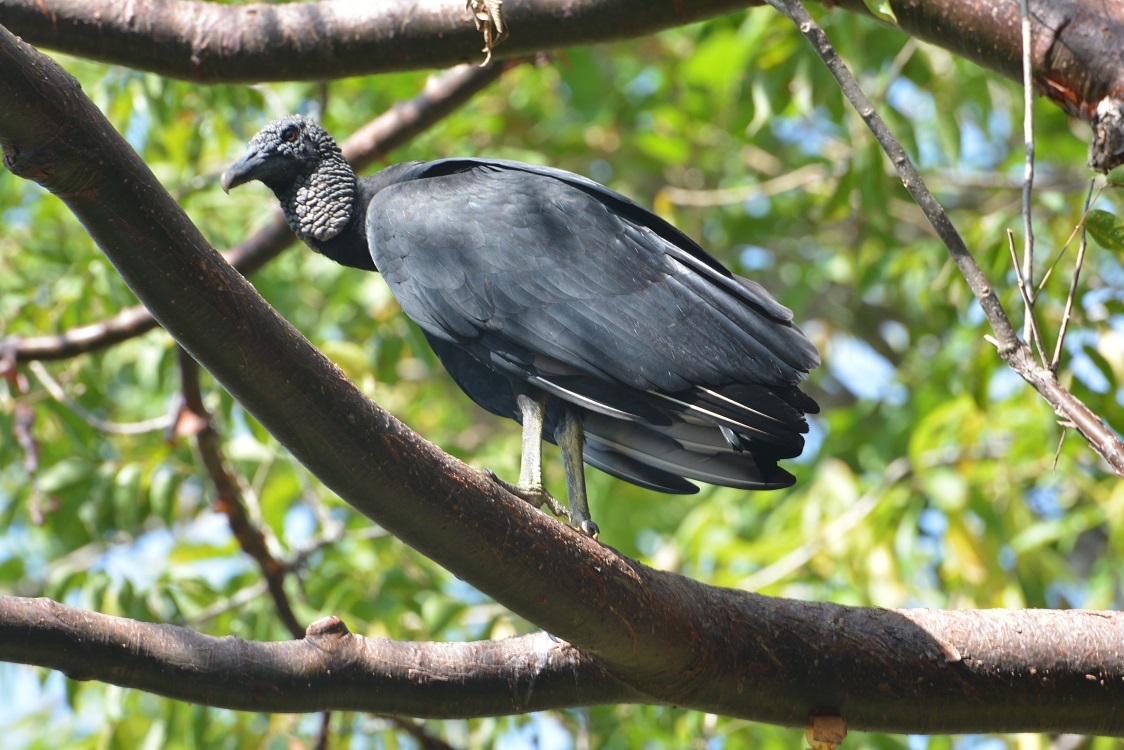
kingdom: Animalia
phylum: Chordata
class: Aves
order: Accipitriformes
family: Cathartidae
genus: Coragyps
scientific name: Coragyps atratus
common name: Black vulture
